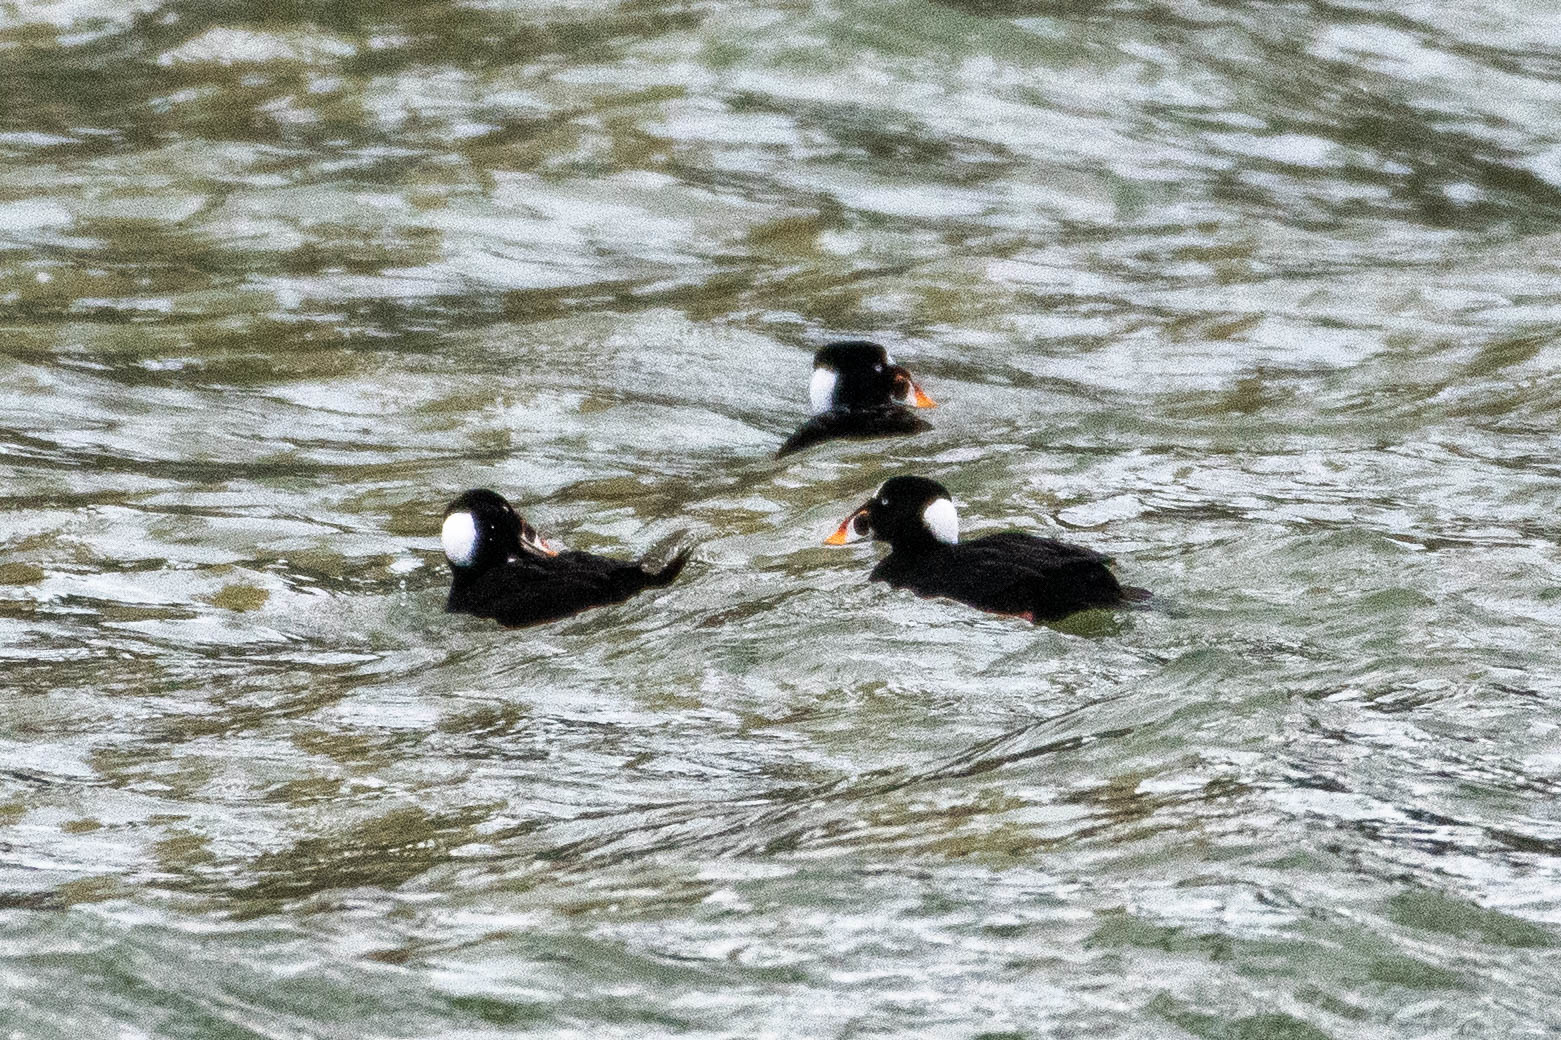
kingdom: Animalia
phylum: Chordata
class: Aves
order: Anseriformes
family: Anatidae
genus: Melanitta
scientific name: Melanitta perspicillata
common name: Surf scoter
